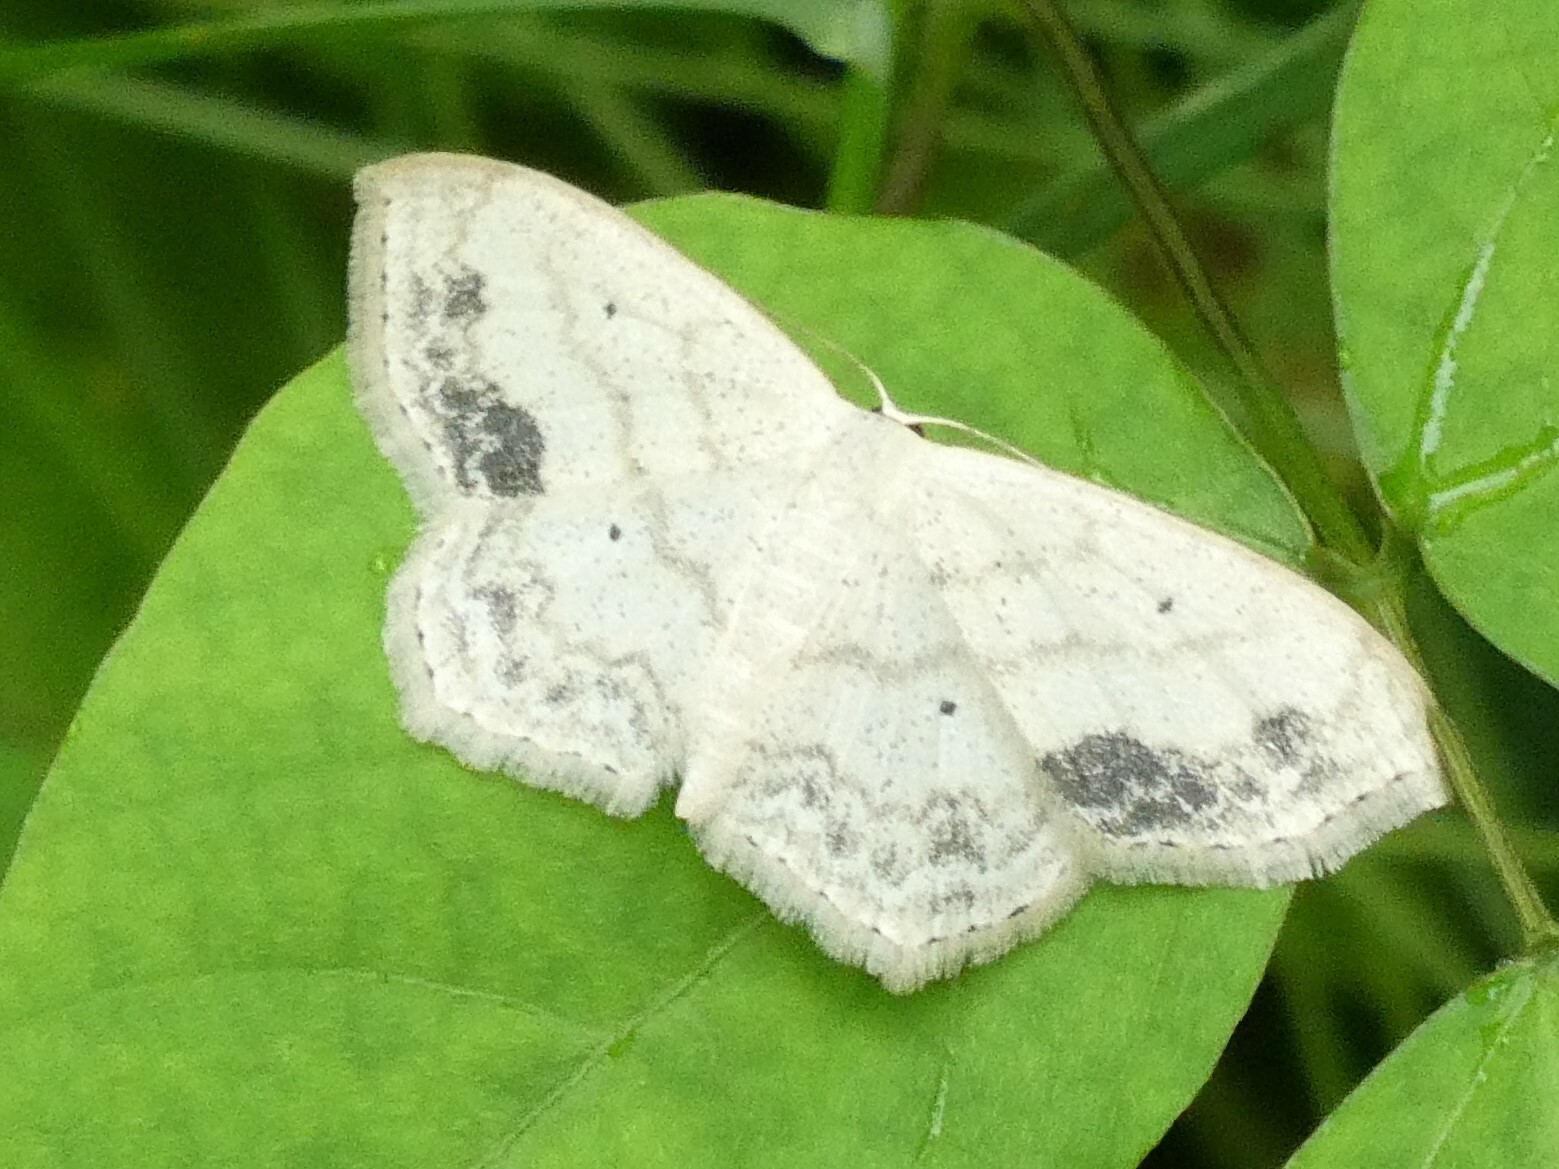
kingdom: Animalia
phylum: Arthropoda
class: Insecta
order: Lepidoptera
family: Geometridae
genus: Scopula
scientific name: Scopula limboundata
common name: Large lace border
